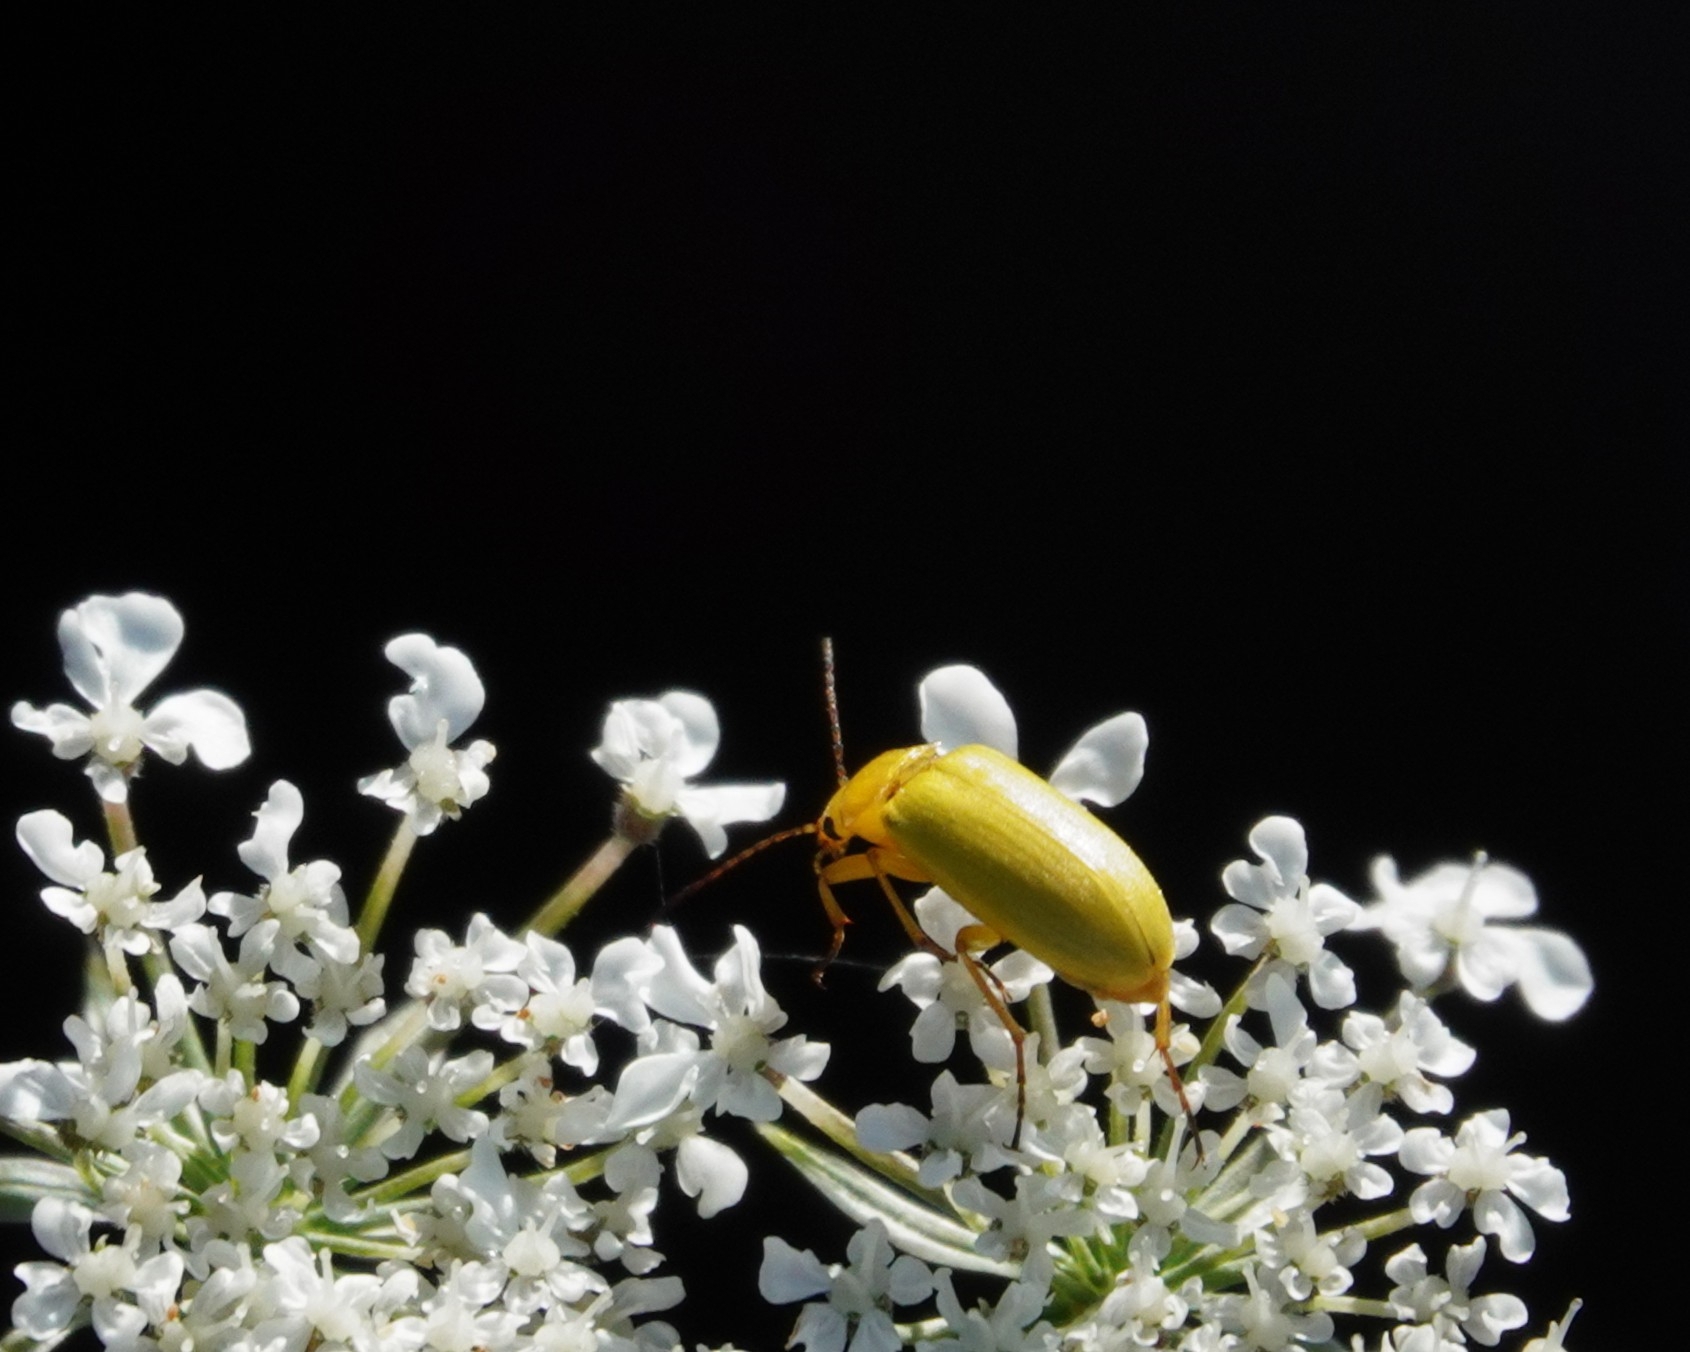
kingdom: Animalia
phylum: Arthropoda
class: Insecta
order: Coleoptera
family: Tenebrionidae
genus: Cteniopus
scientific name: Cteniopus sulphureus
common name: Sulphur beetle
